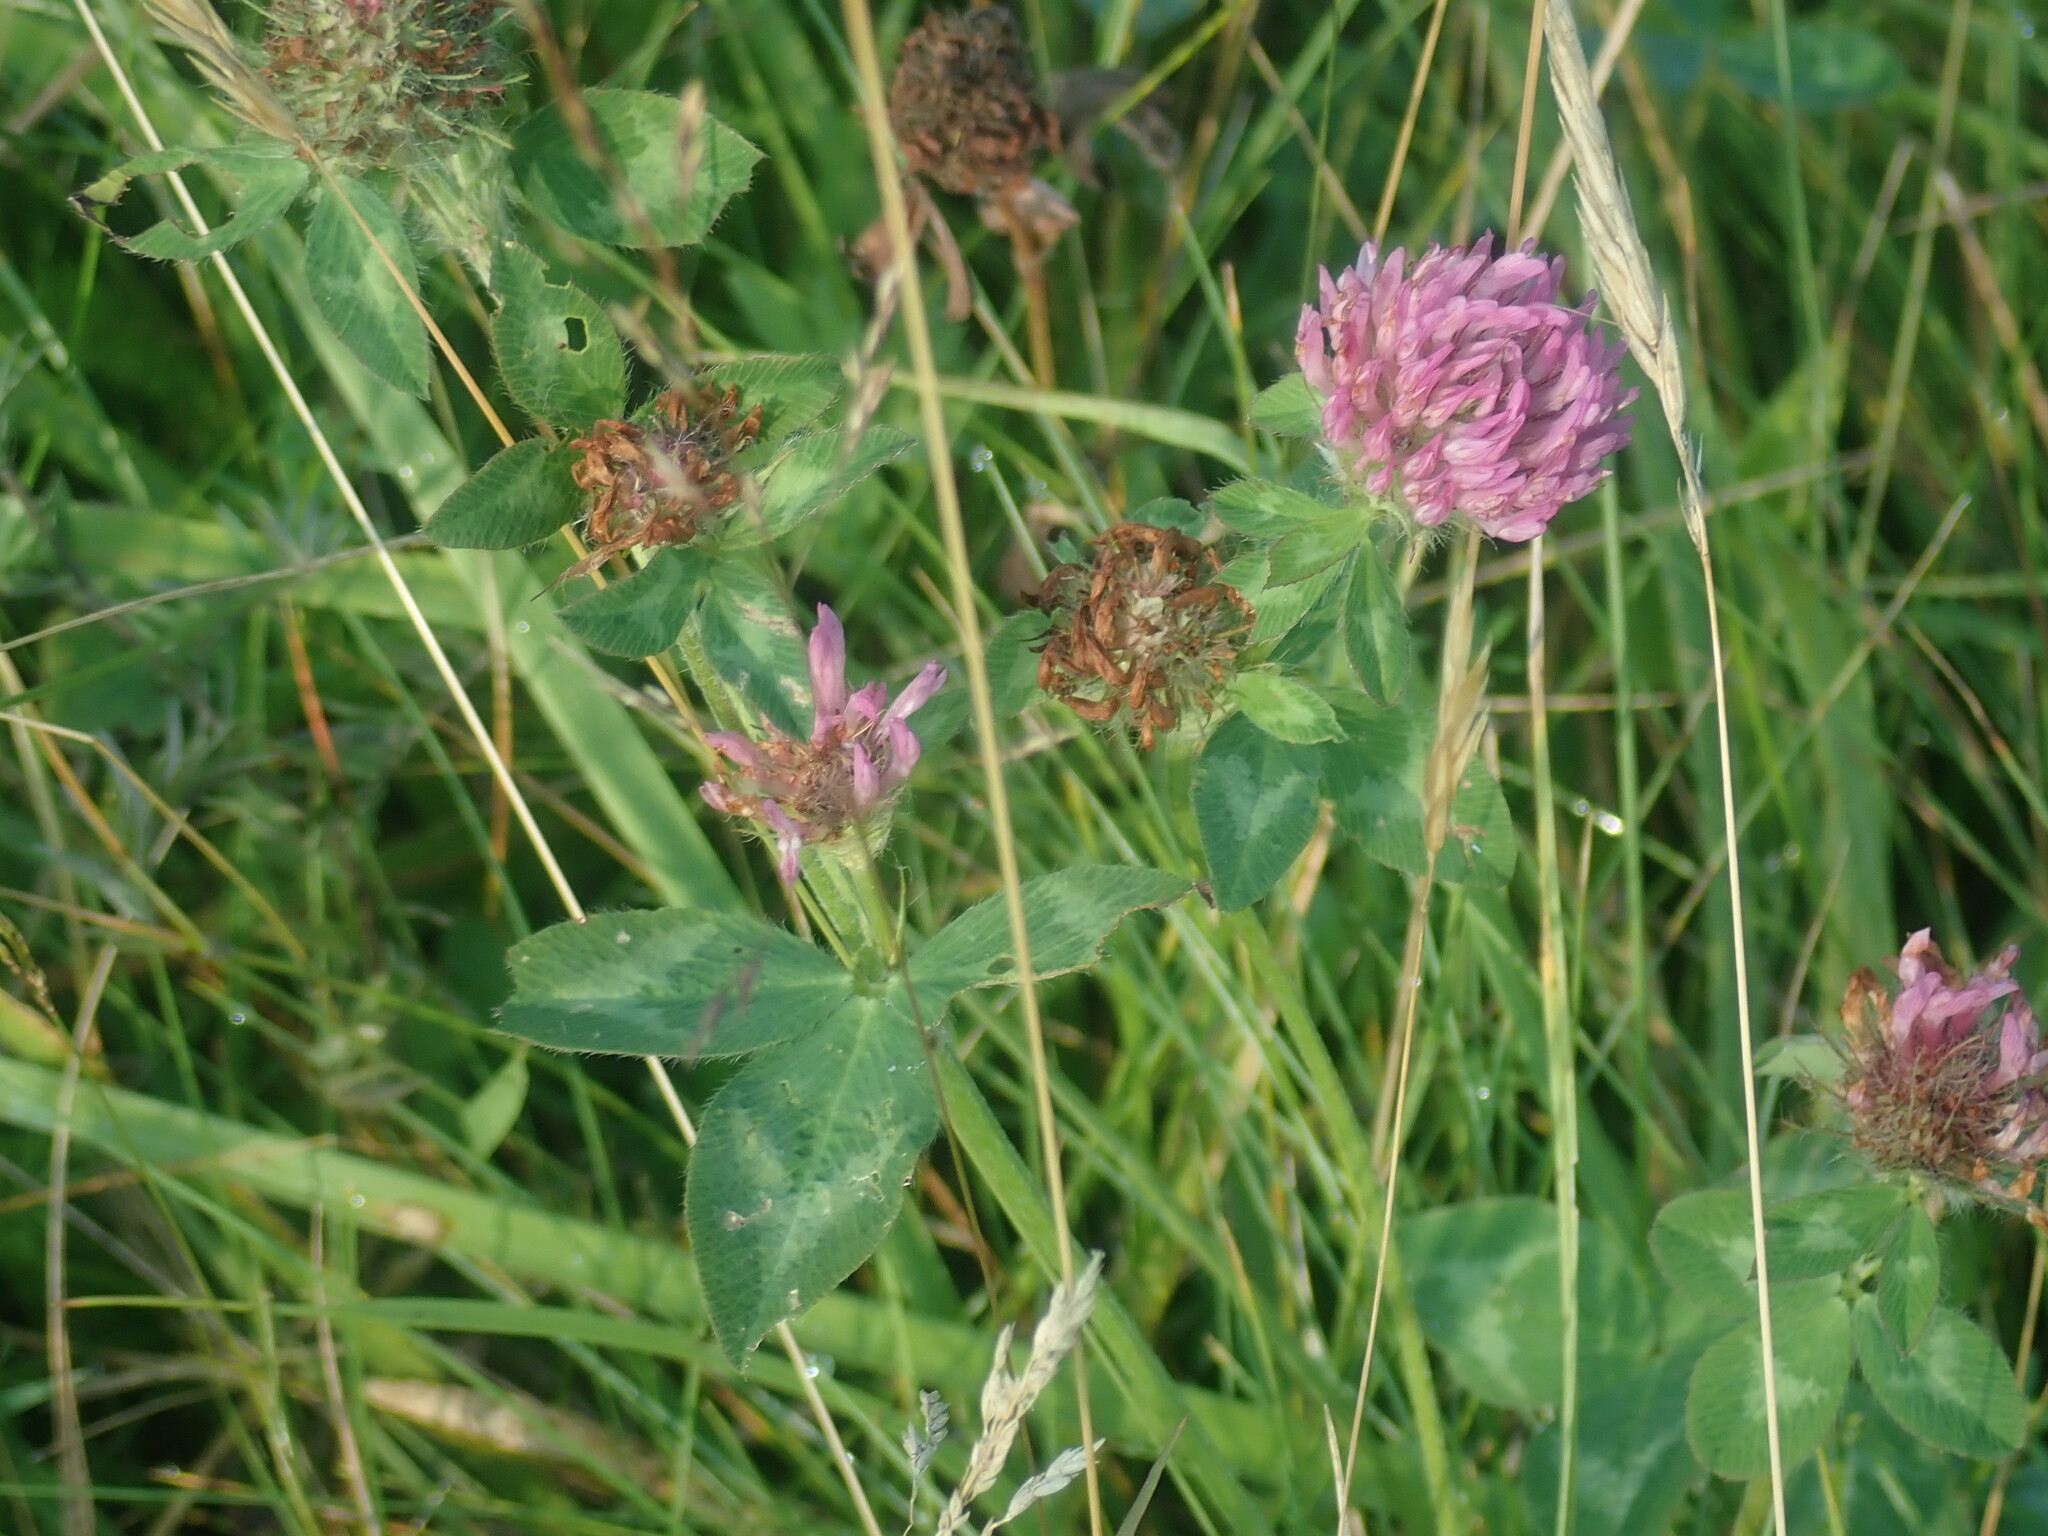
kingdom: Plantae
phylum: Tracheophyta
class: Magnoliopsida
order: Fabales
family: Fabaceae
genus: Trifolium
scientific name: Trifolium pratense
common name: Red clover
